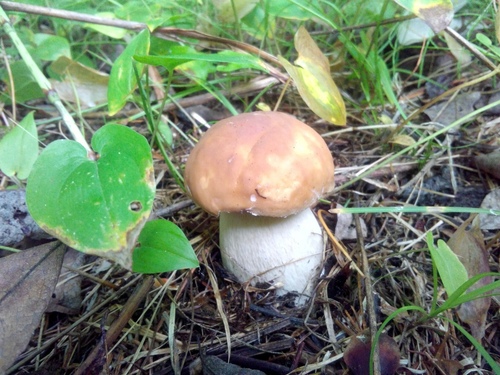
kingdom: Fungi
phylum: Basidiomycota
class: Agaricomycetes
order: Boletales
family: Boletaceae
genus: Boletus
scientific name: Boletus edulis
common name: Cep
